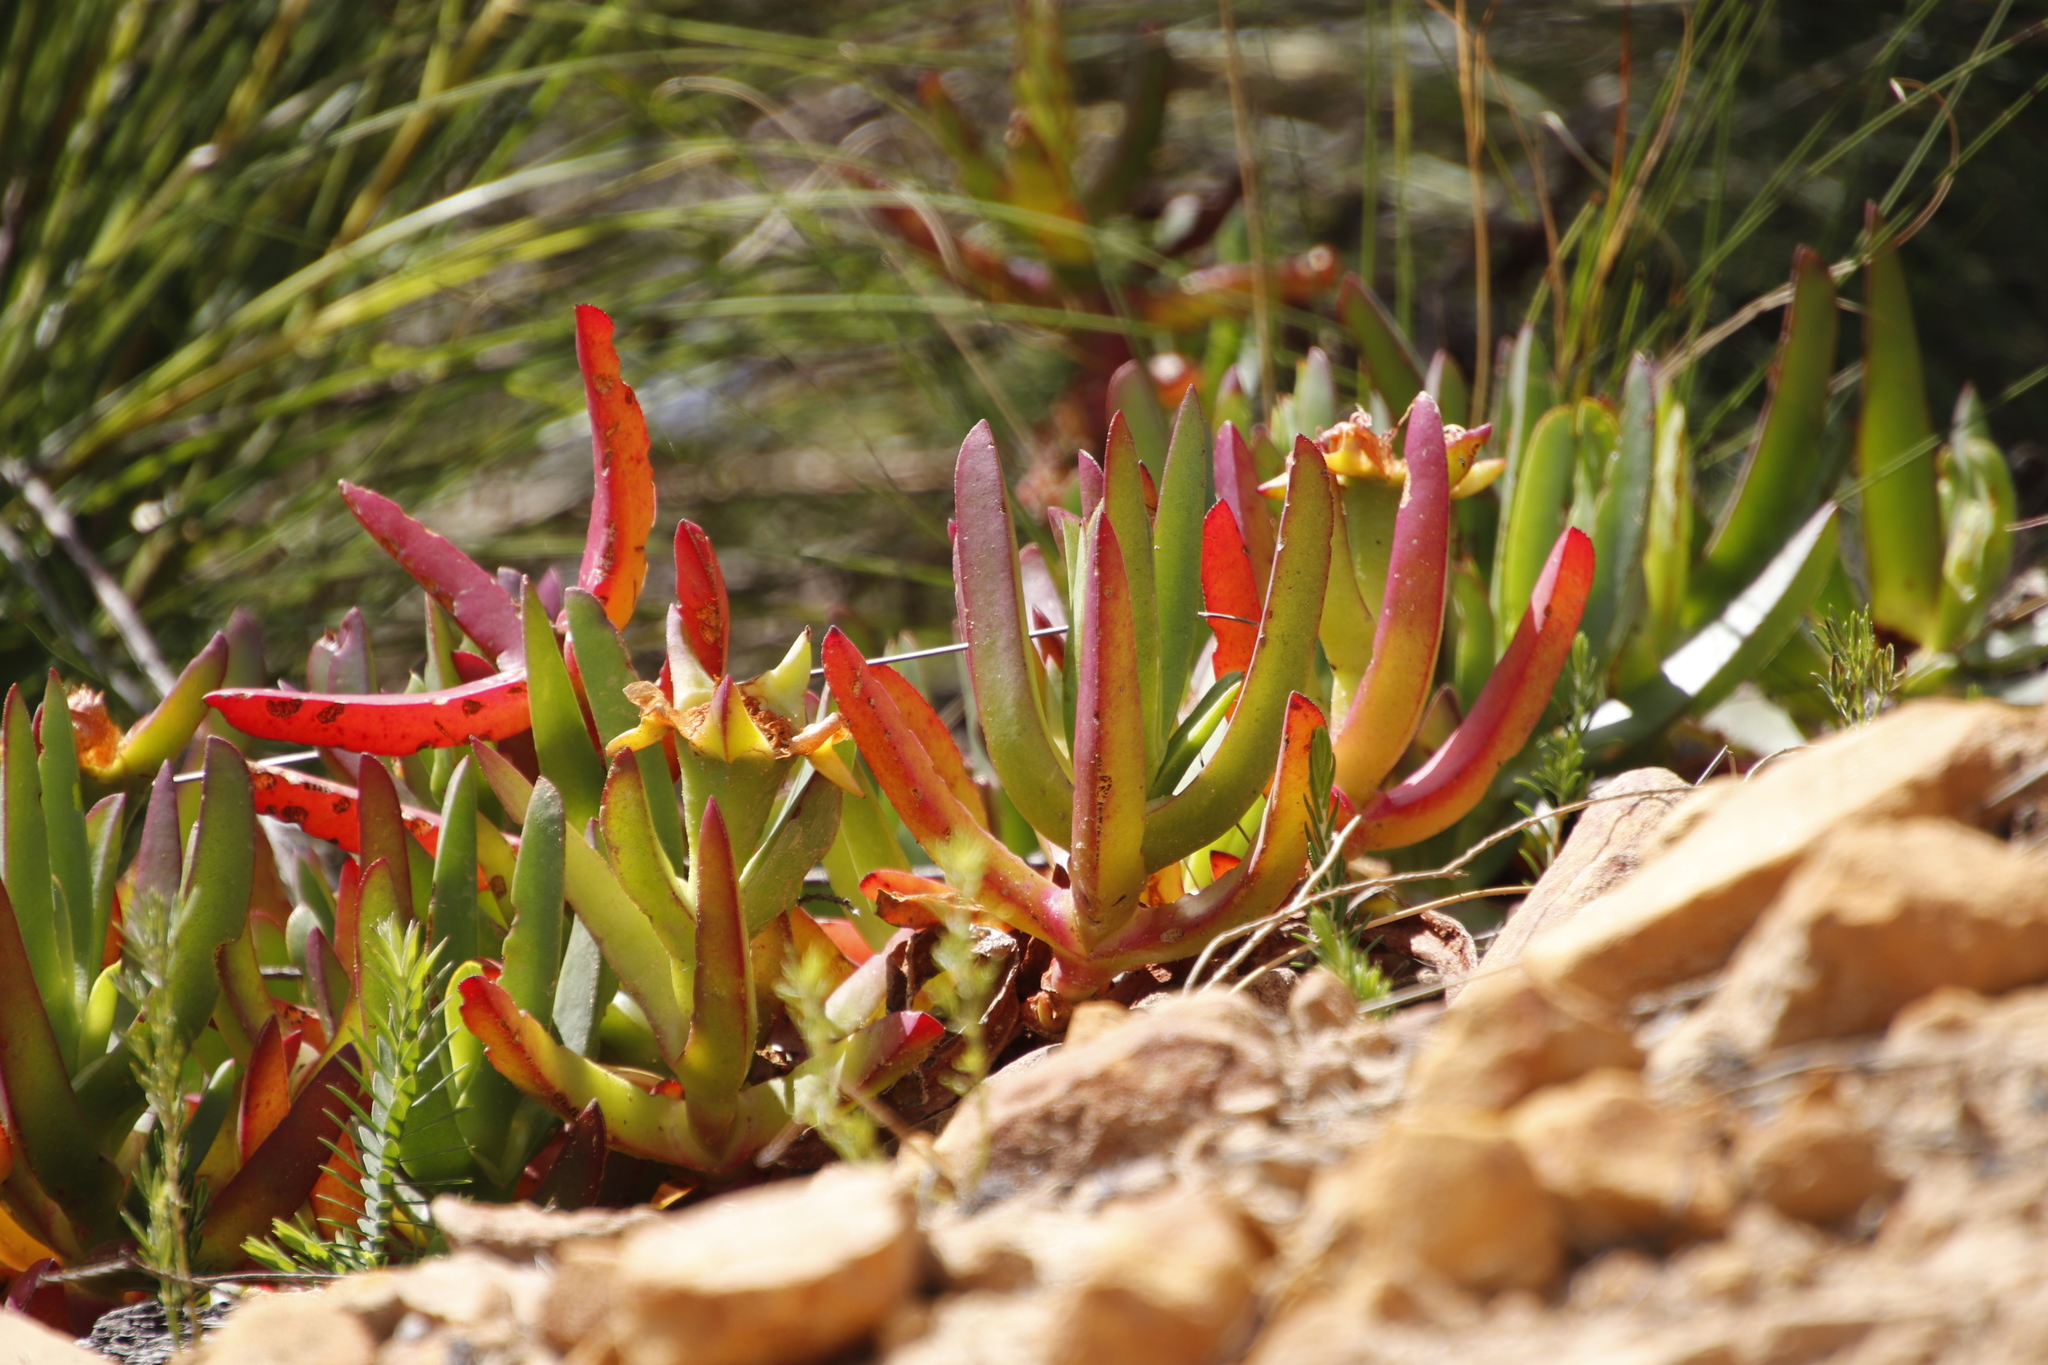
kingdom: Plantae
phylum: Tracheophyta
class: Magnoliopsida
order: Caryophyllales
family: Aizoaceae
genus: Carpobrotus
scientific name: Carpobrotus edulis
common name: Hottentot-fig
